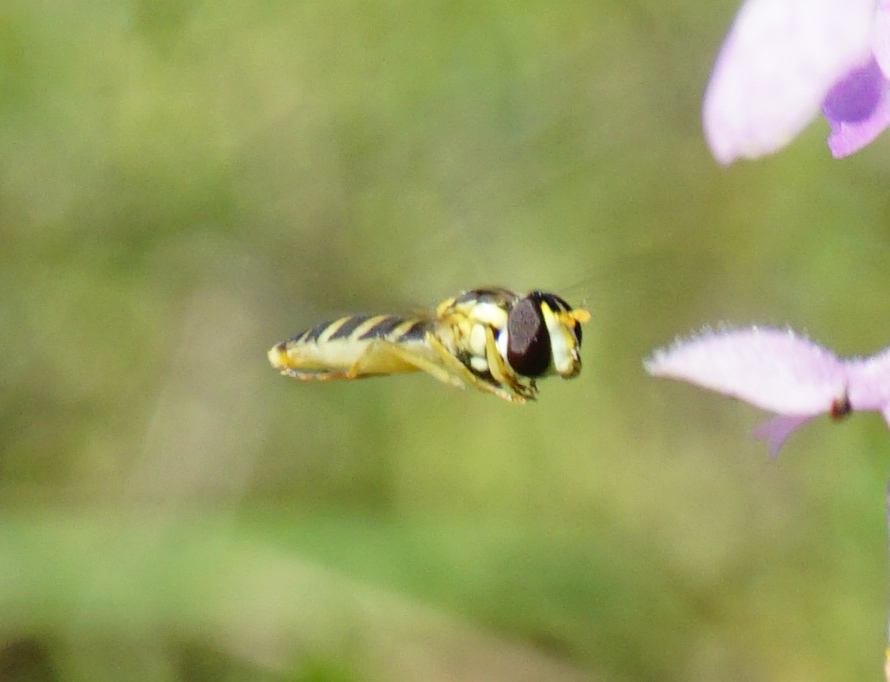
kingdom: Animalia
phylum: Arthropoda
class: Insecta
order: Diptera
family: Syrphidae
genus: Sphaerophoria
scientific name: Sphaerophoria
